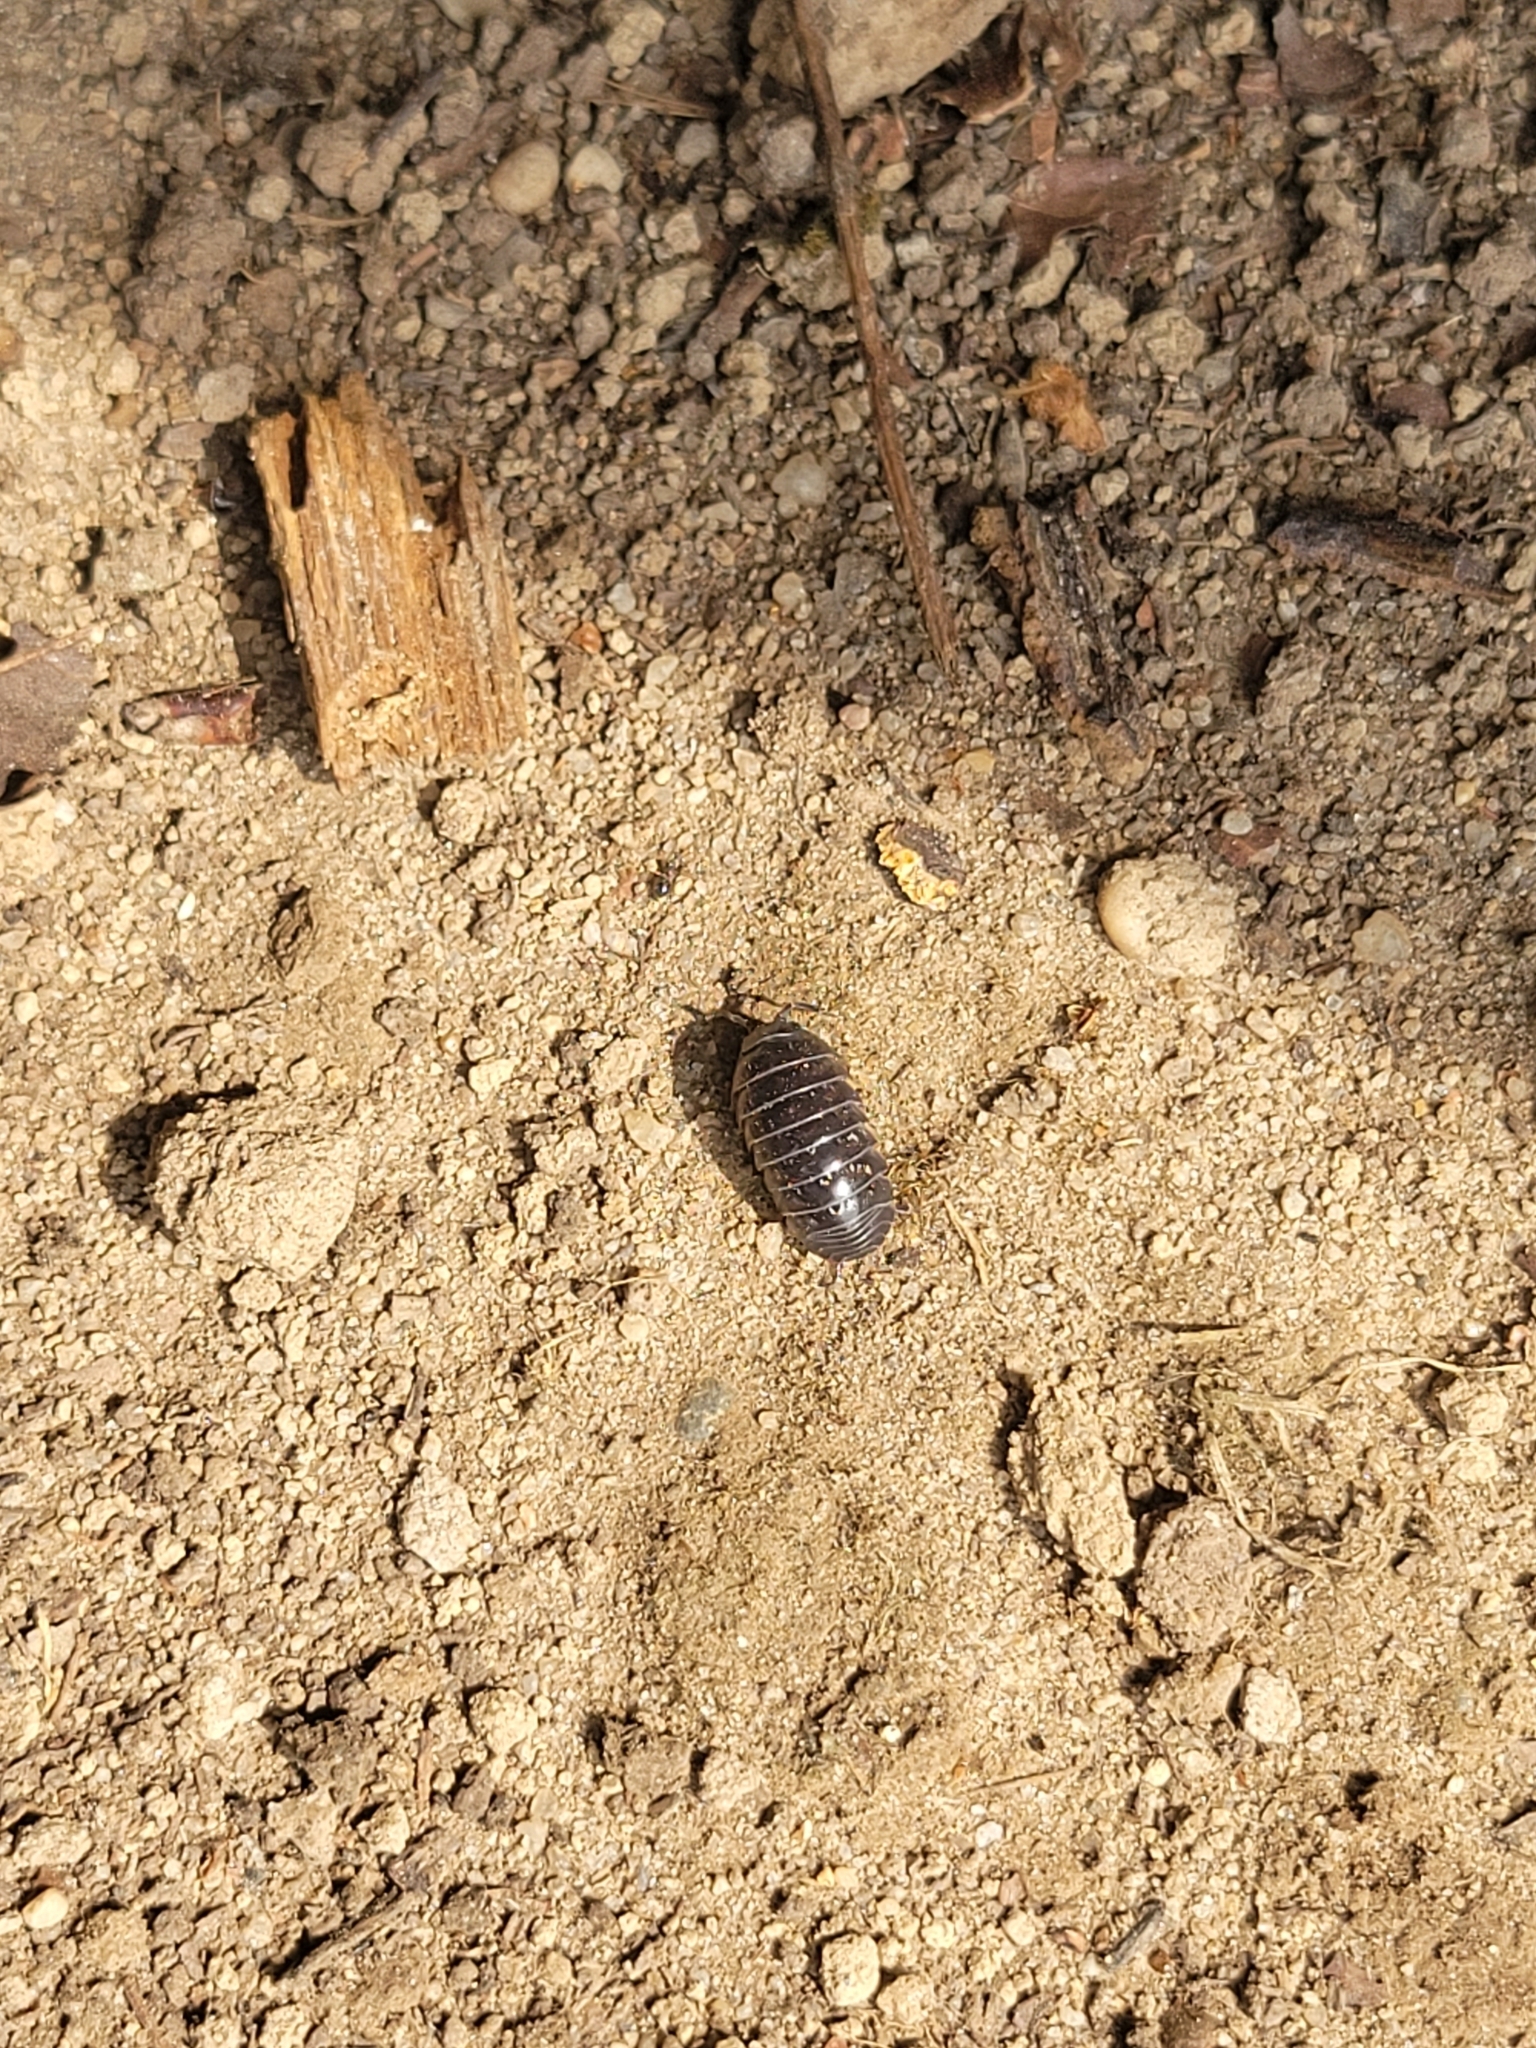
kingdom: Animalia
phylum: Arthropoda
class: Malacostraca
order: Isopoda
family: Armadillidiidae
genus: Armadillidium
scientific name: Armadillidium vulgare
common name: Common pill woodlouse
